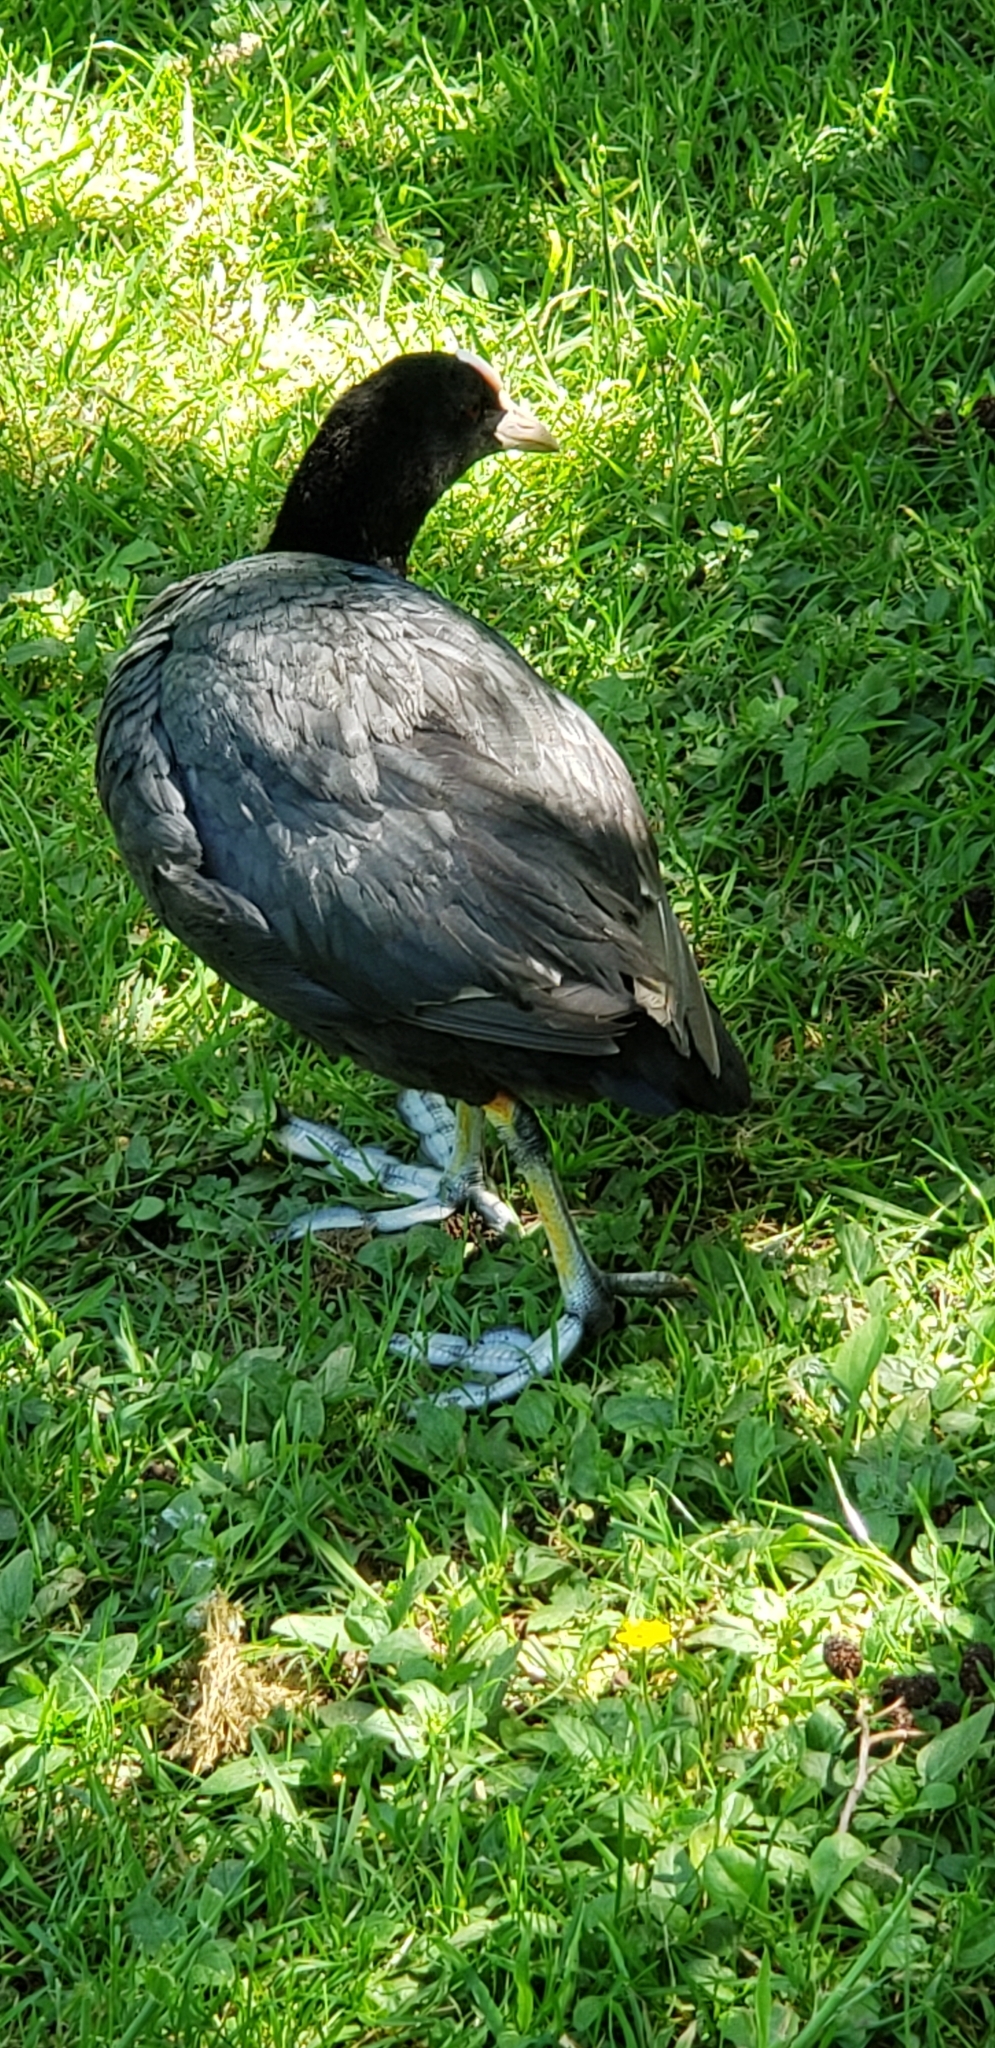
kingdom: Animalia
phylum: Chordata
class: Aves
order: Gruiformes
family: Rallidae
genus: Fulica
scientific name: Fulica atra
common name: Eurasian coot
